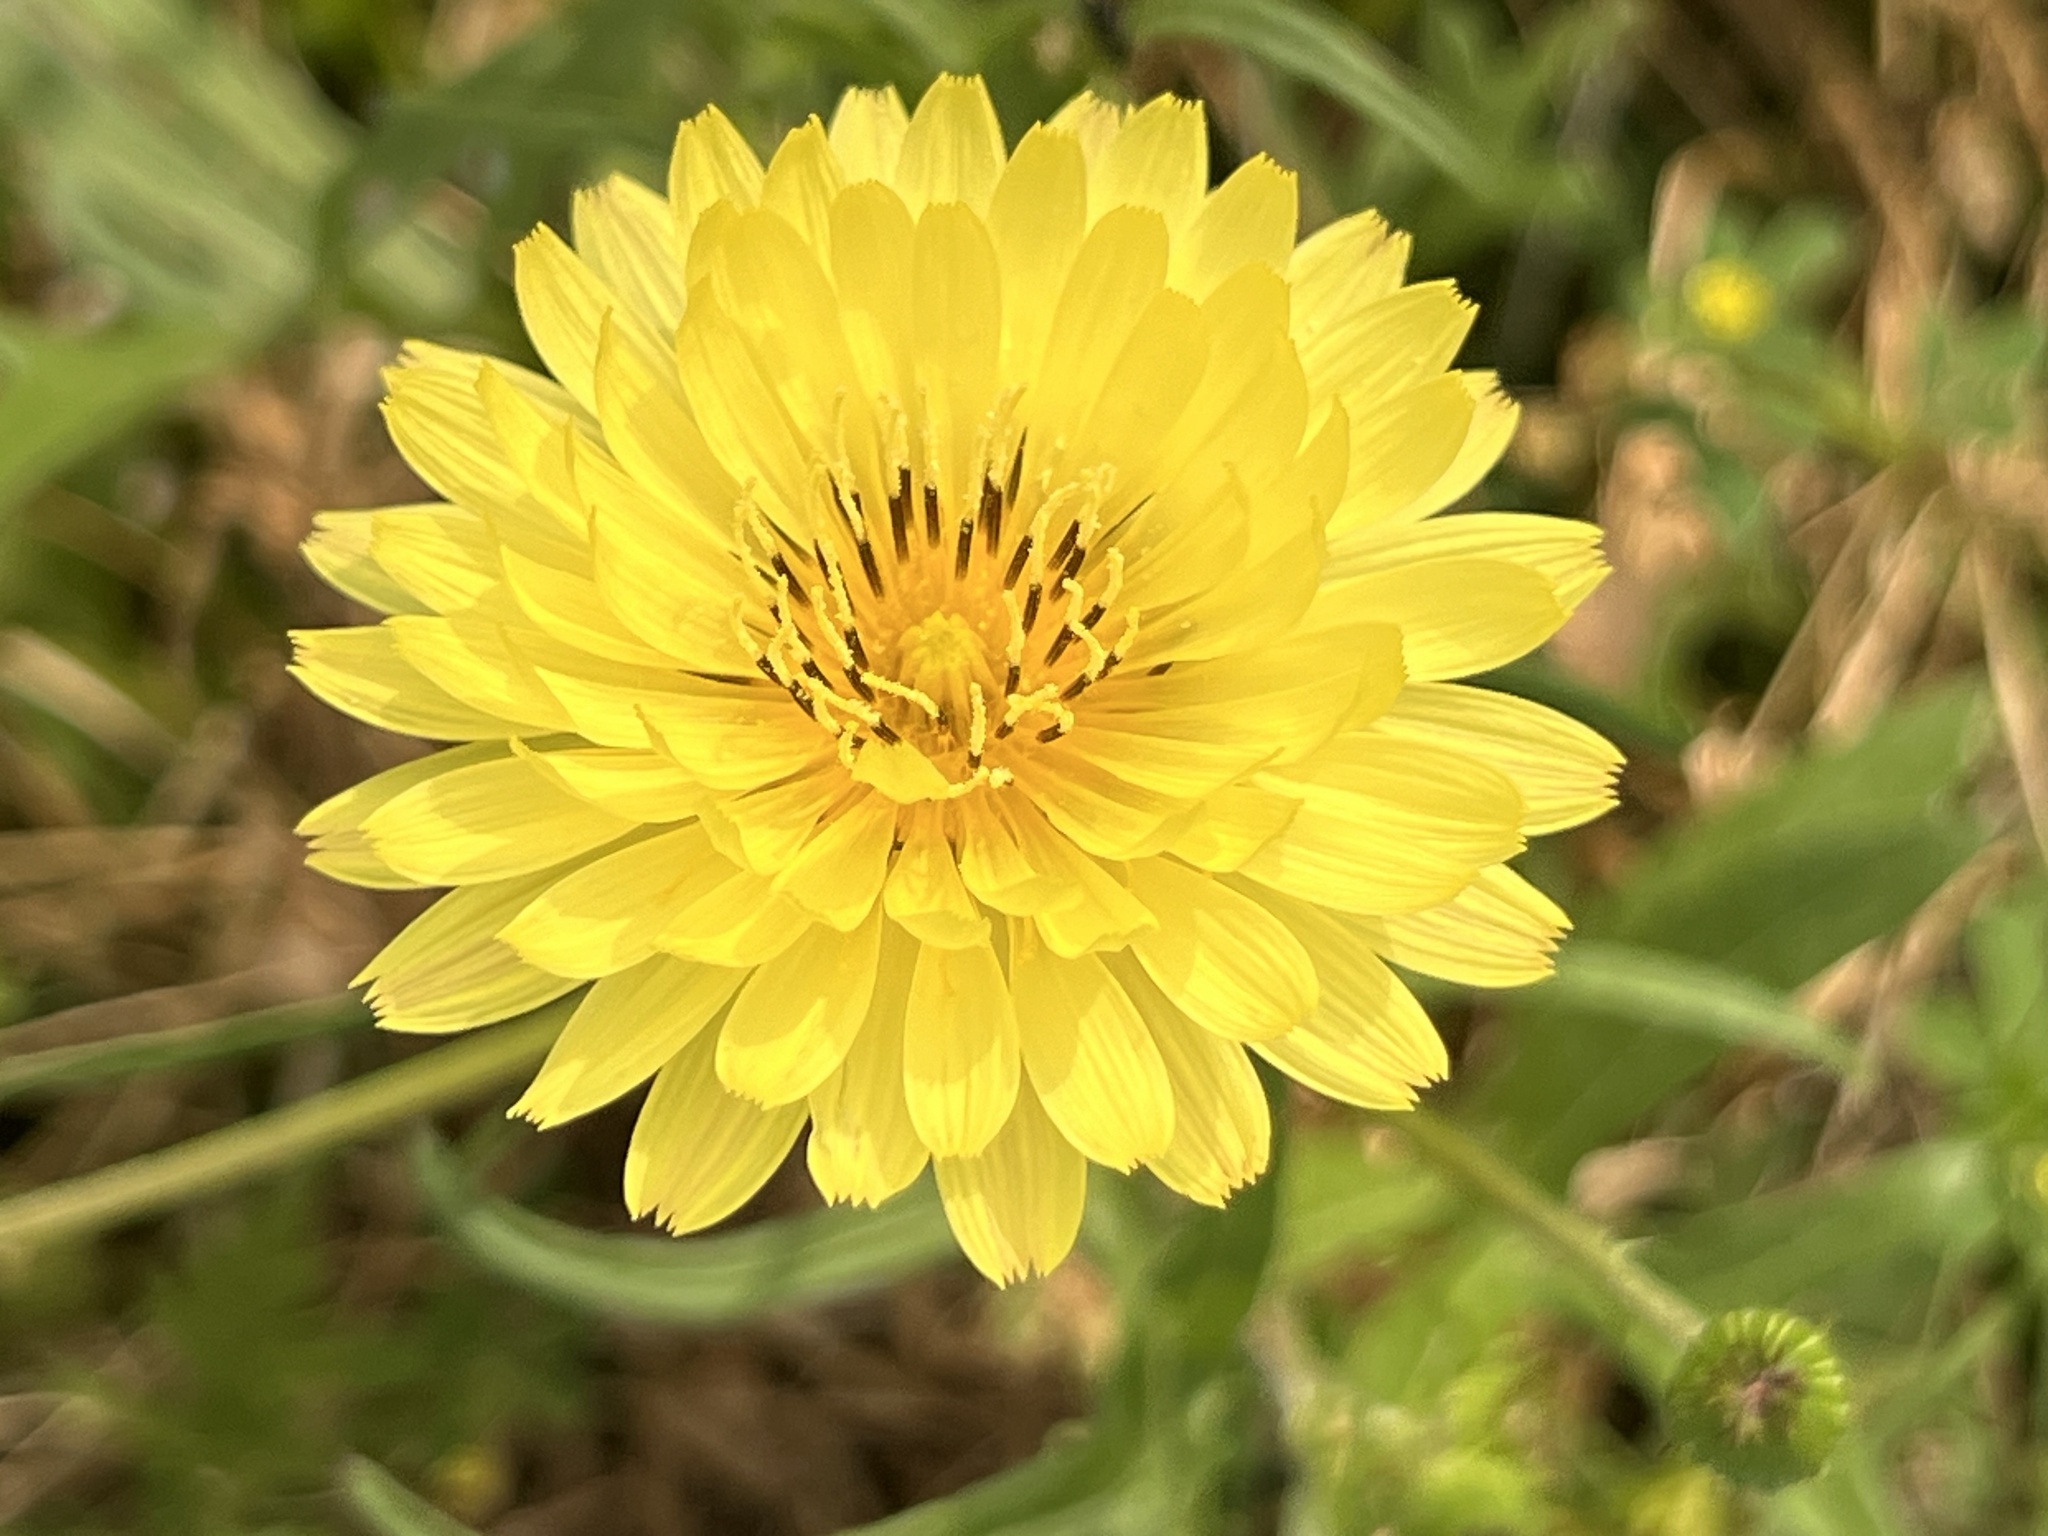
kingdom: Plantae
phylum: Tracheophyta
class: Magnoliopsida
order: Asterales
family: Asteraceae
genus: Pyrrhopappus
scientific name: Pyrrhopappus pauciflorus
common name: Texas false dandelion
